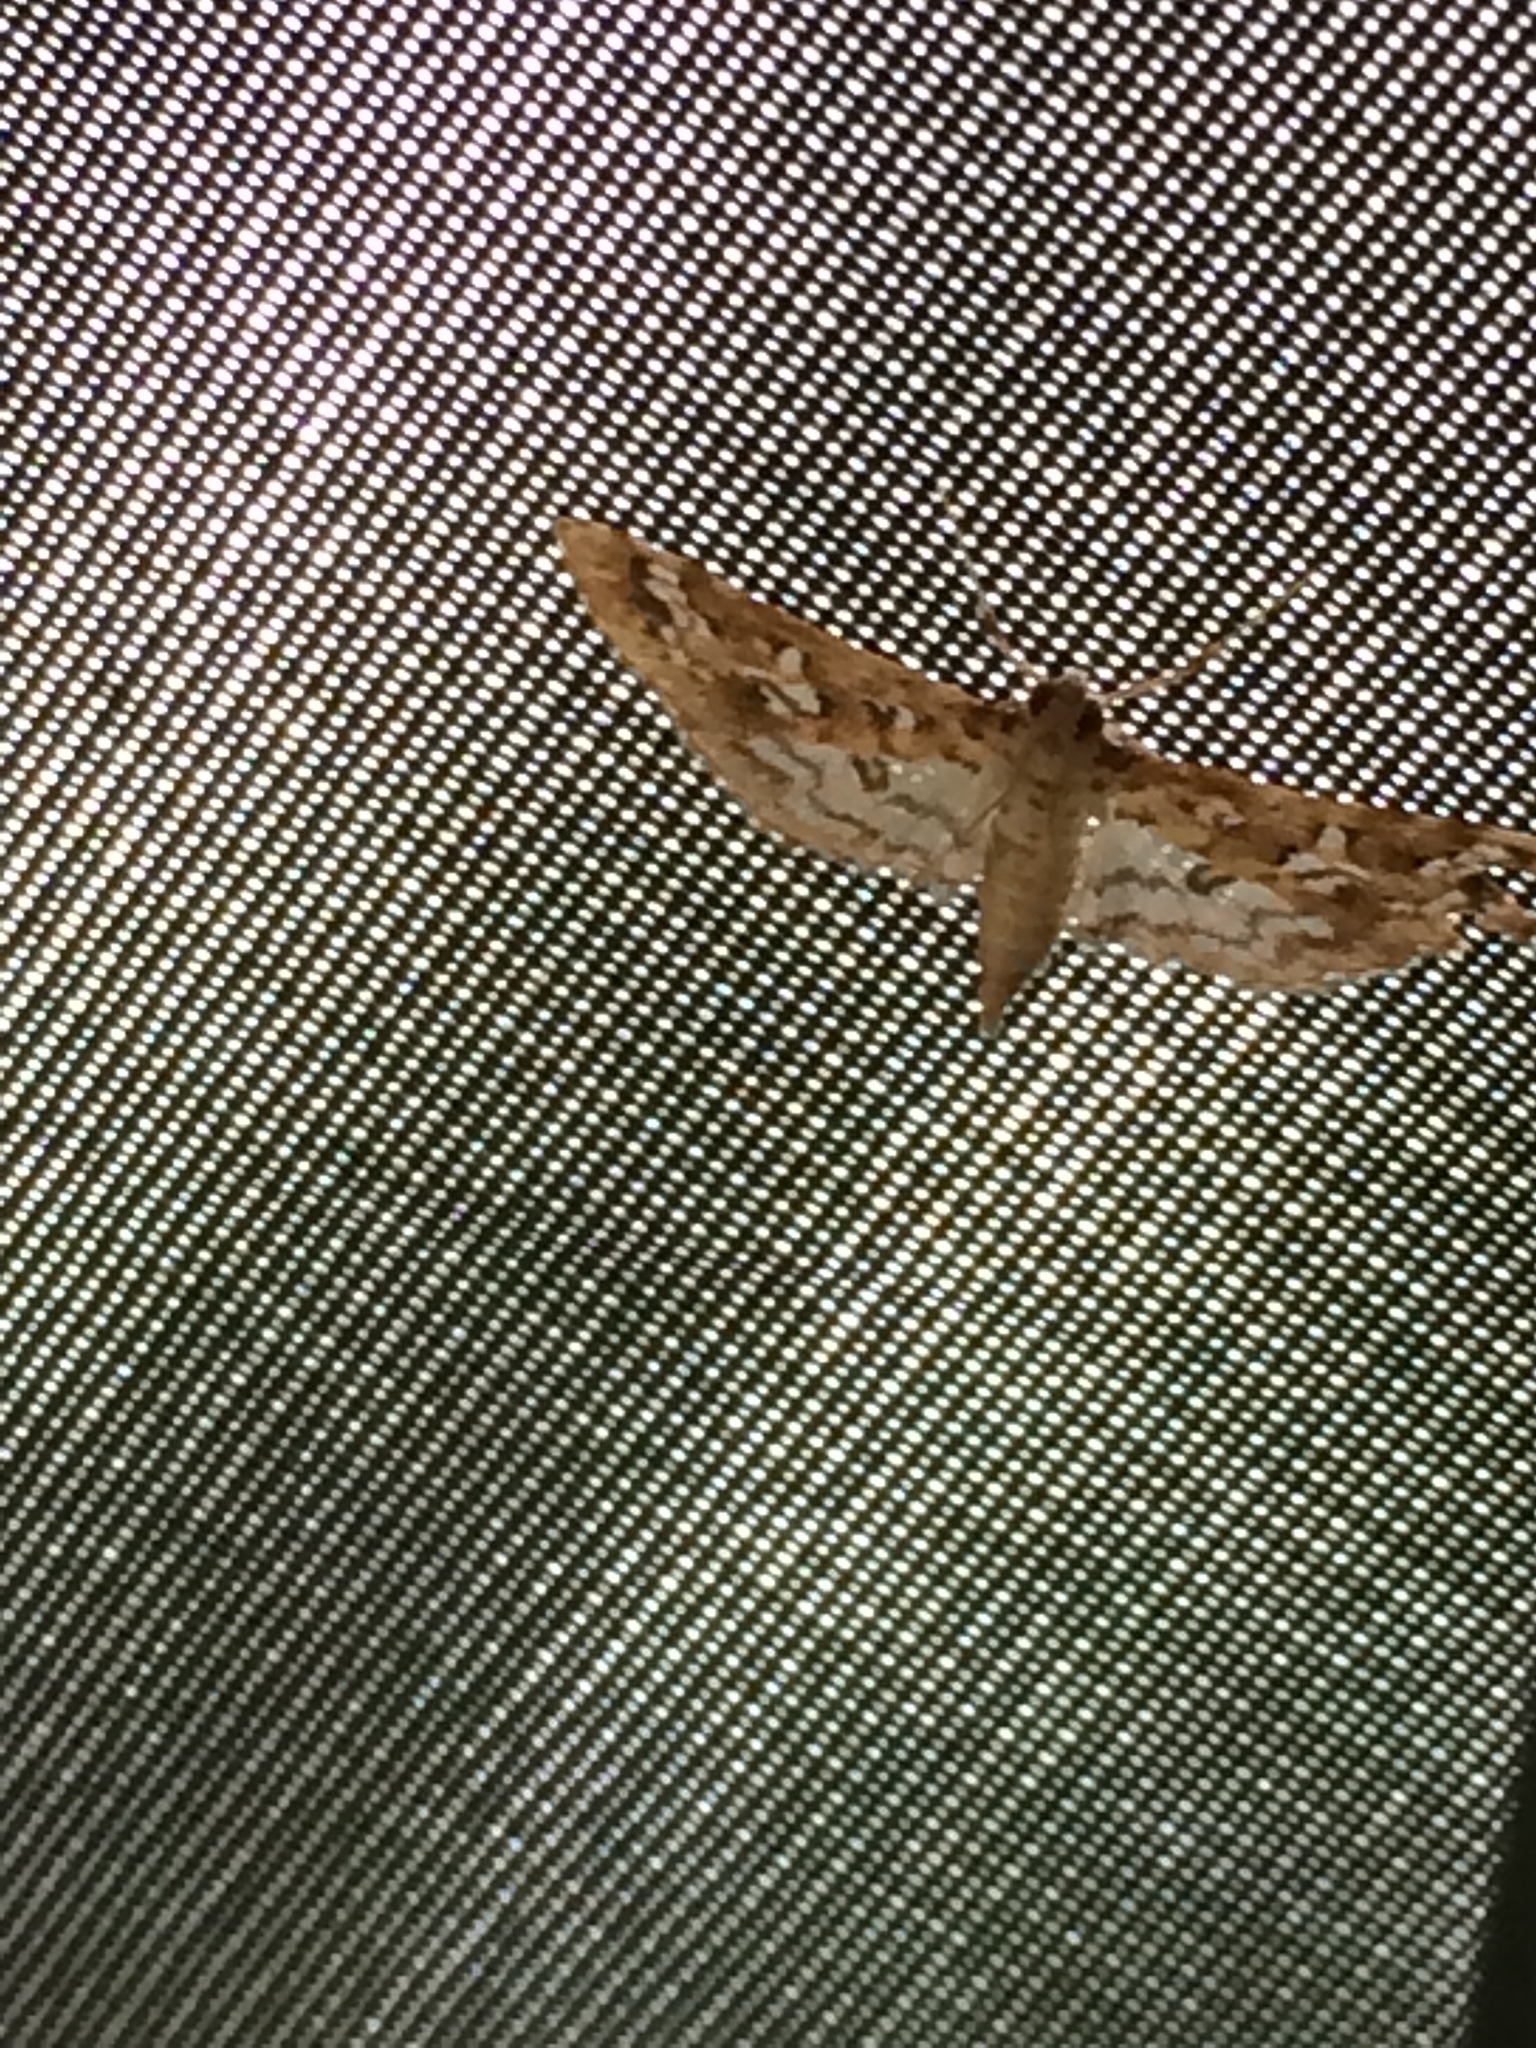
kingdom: Animalia
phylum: Arthropoda
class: Insecta
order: Lepidoptera
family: Crambidae
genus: Samea
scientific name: Samea multiplicalis
